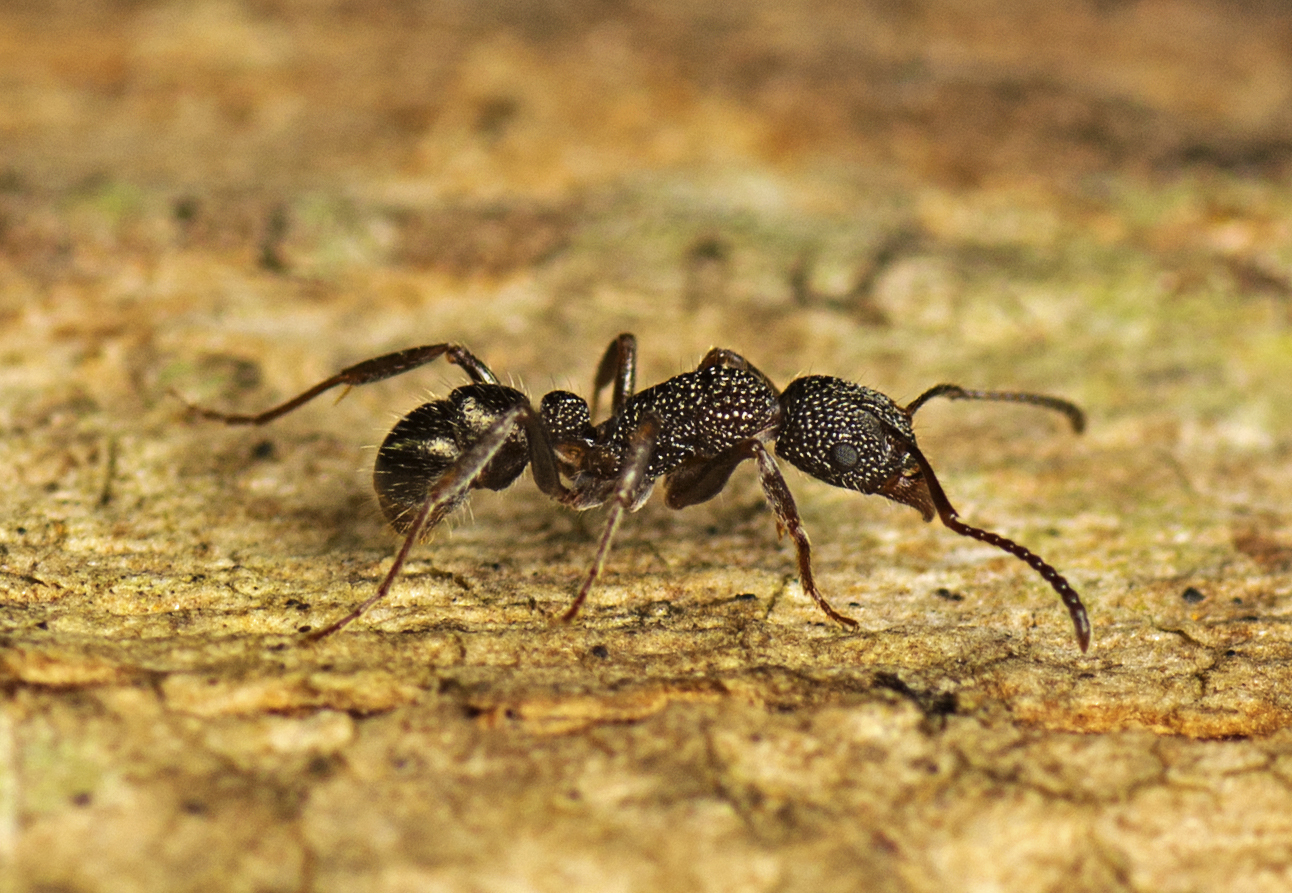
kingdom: Animalia
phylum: Arthropoda
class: Insecta
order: Hymenoptera
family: Formicidae
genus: Rhytidoponera
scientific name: Rhytidoponera anceps
